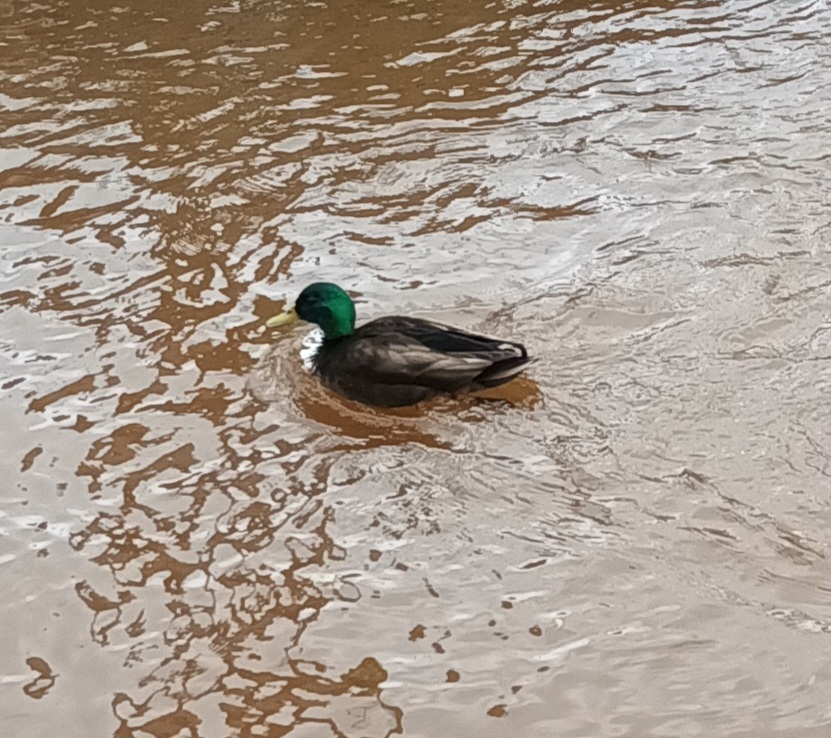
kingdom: Animalia
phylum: Chordata
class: Aves
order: Anseriformes
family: Anatidae
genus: Anas
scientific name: Anas platyrhynchos
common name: Mallard
